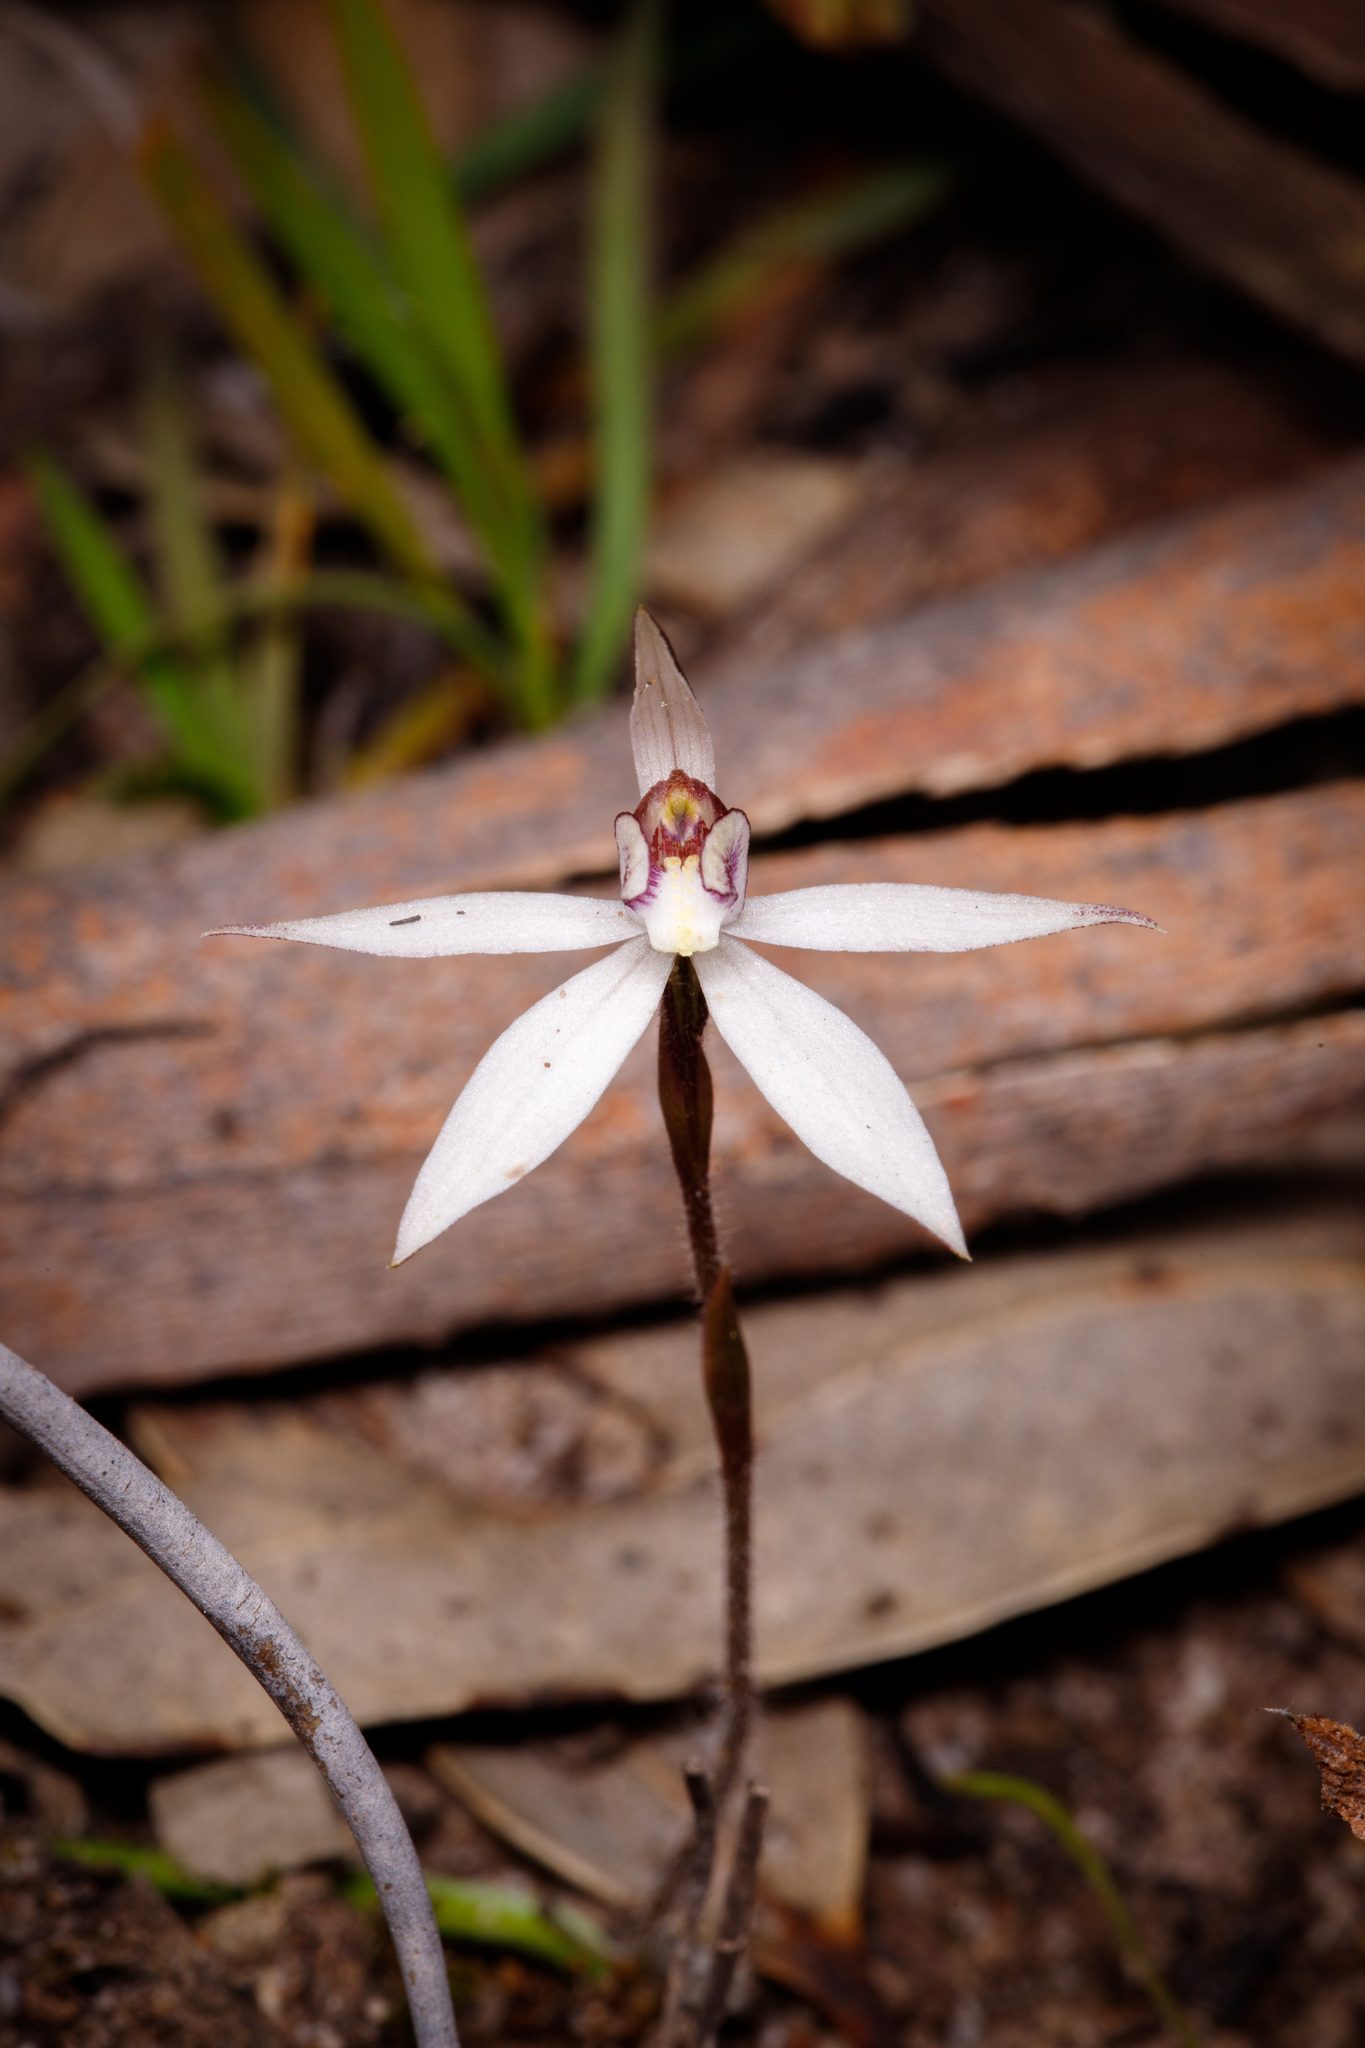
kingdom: Plantae
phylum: Tracheophyta
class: Liliopsida
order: Asparagales
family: Orchidaceae
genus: Caladenia
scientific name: Caladenia saccharata
